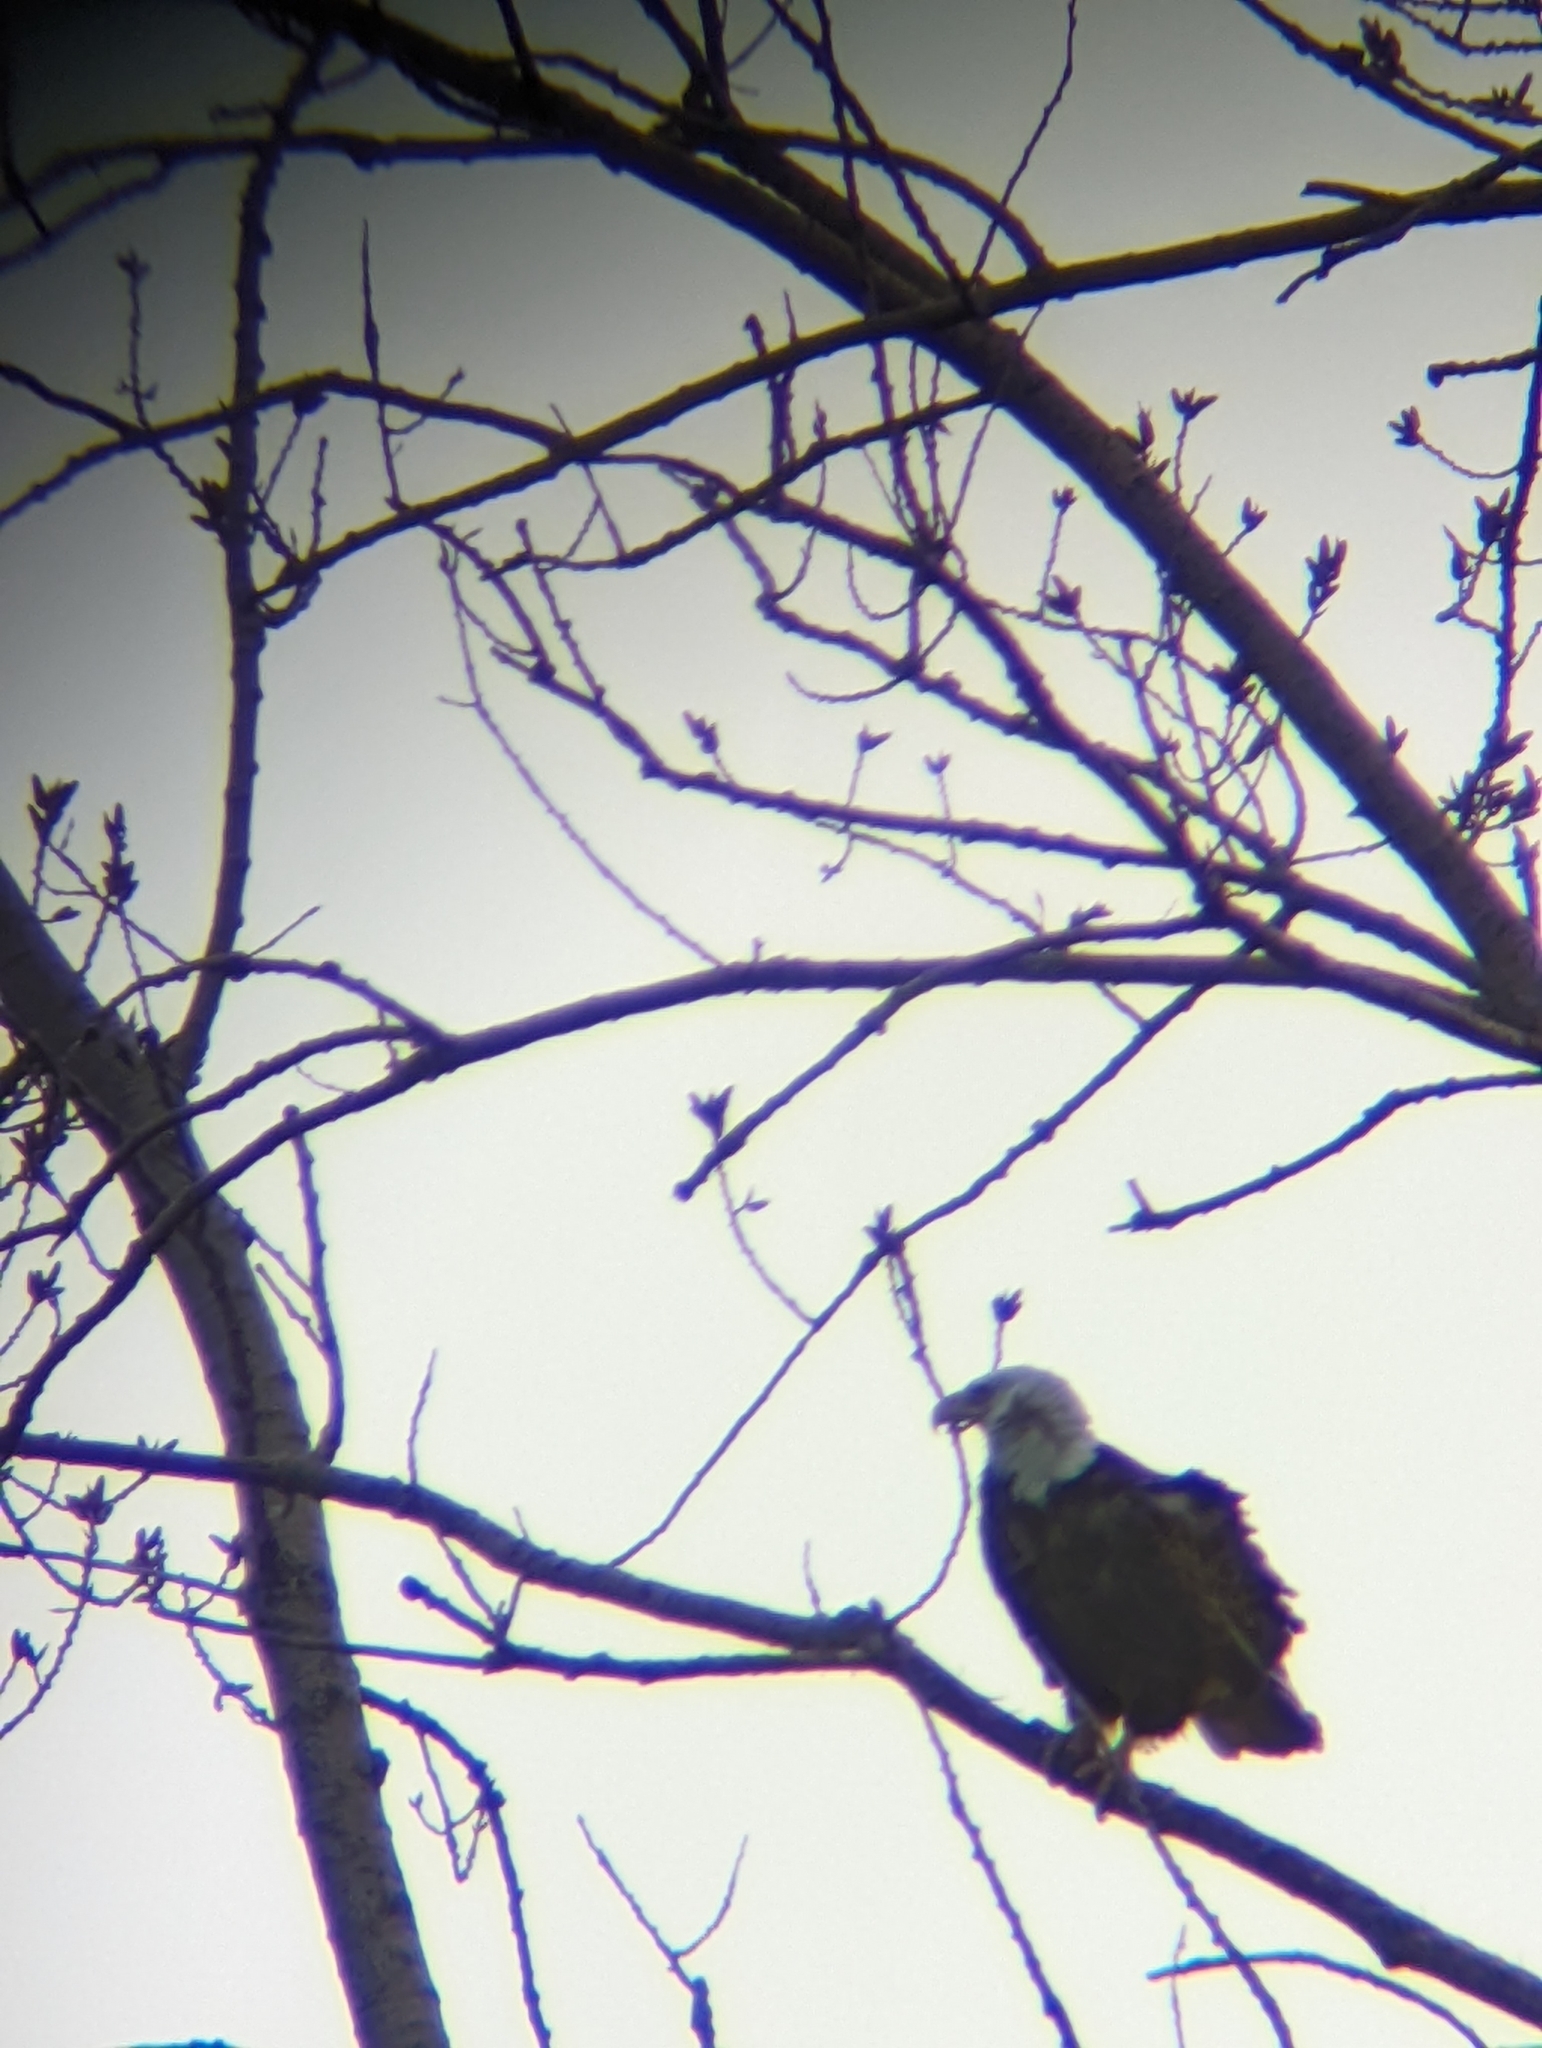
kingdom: Animalia
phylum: Chordata
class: Aves
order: Accipitriformes
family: Accipitridae
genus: Haliaeetus
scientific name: Haliaeetus leucocephalus
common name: Bald eagle
